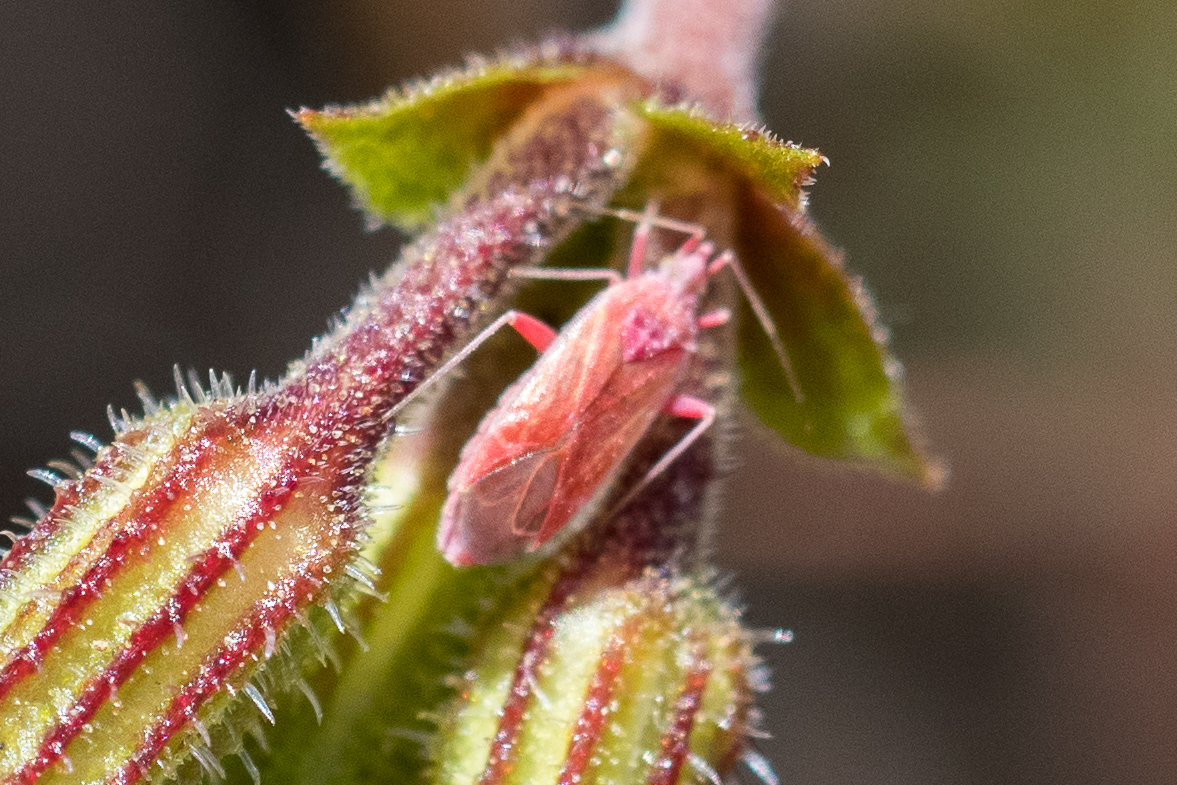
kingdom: Animalia
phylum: Arthropoda
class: Insecta
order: Hemiptera
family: Miridae
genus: Macrotylus
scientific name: Macrotylus henryi
